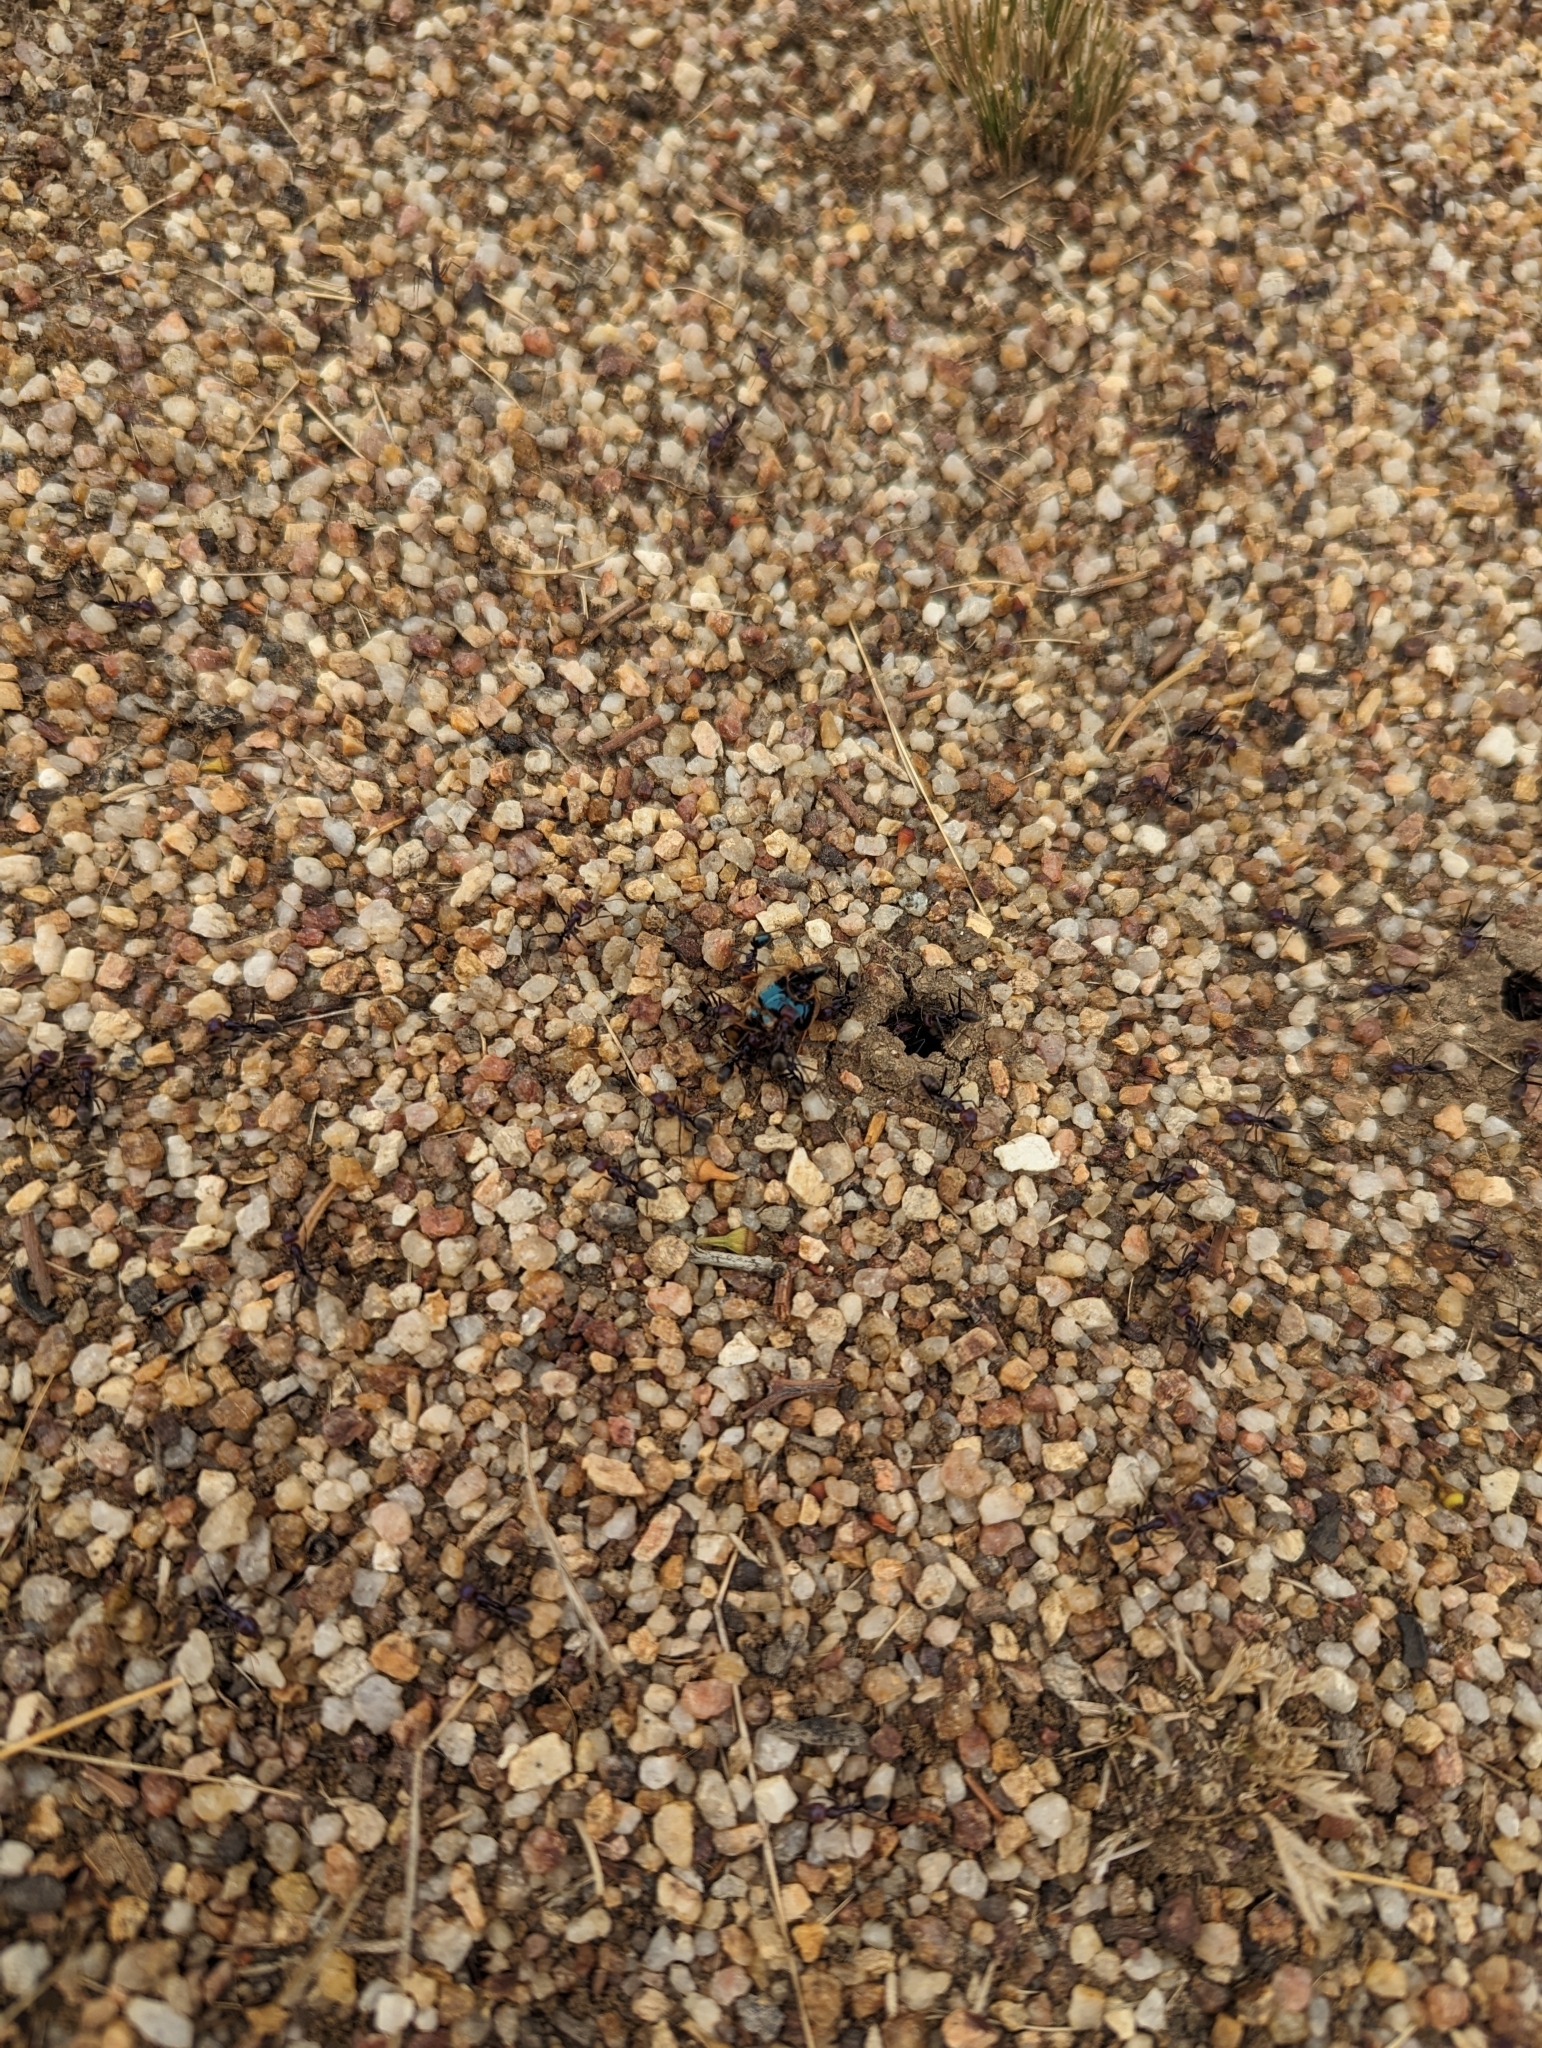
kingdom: Animalia
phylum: Arthropoda
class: Insecta
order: Hymenoptera
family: Formicidae
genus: Iridomyrmex
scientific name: Iridomyrmex purpureus
